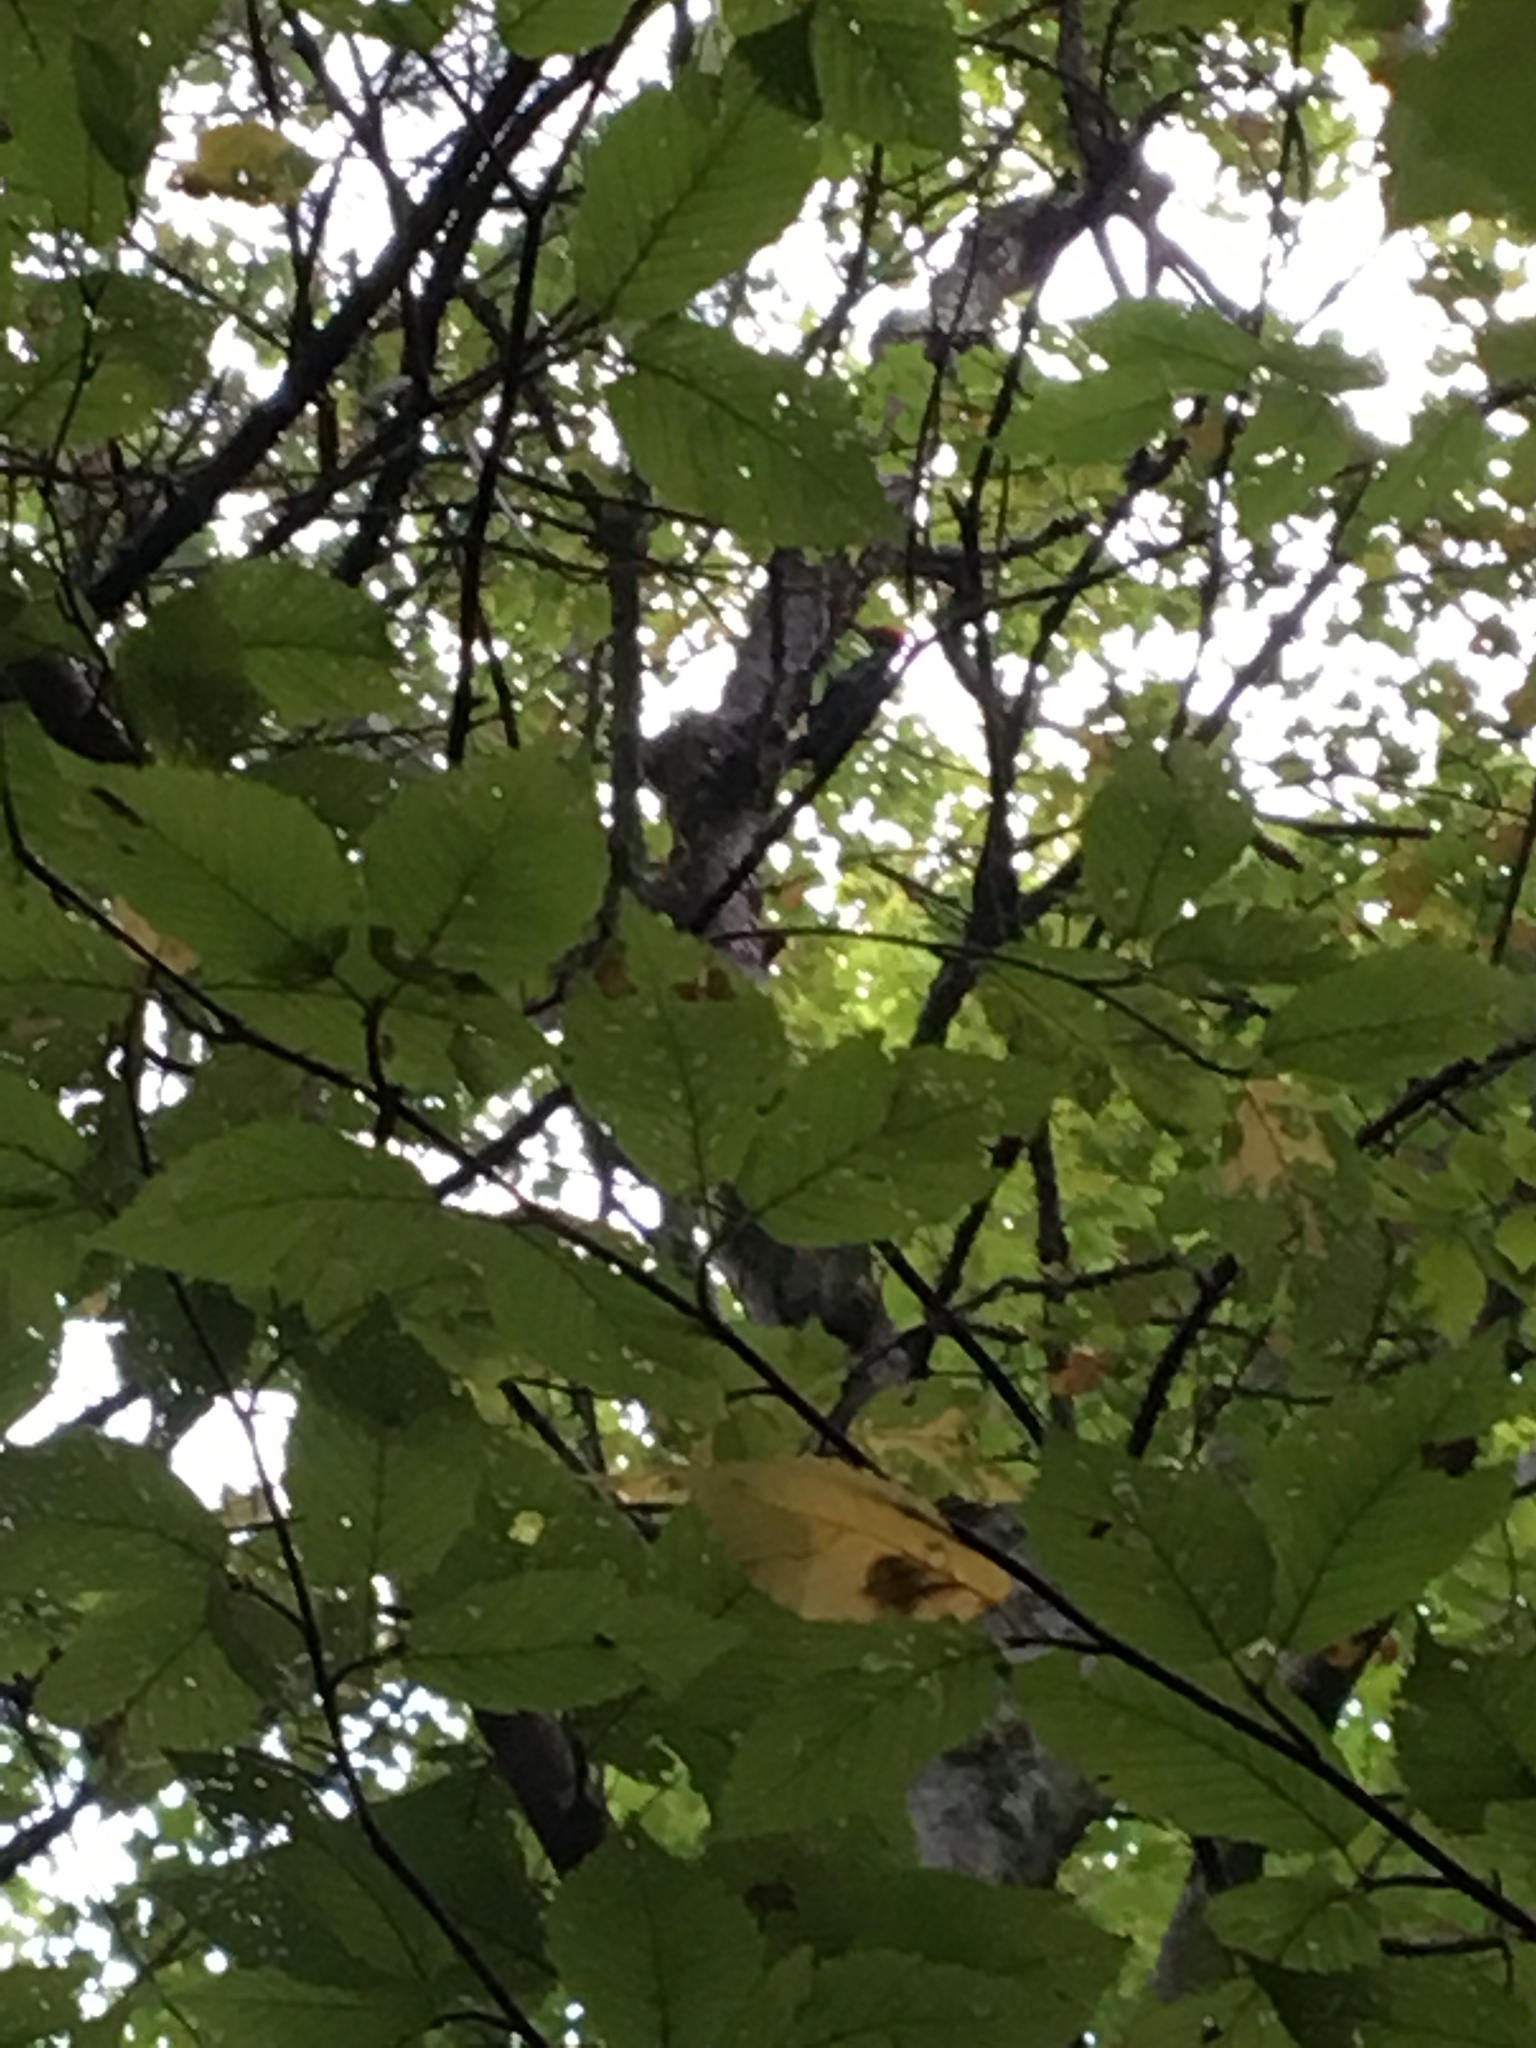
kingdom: Animalia
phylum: Chordata
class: Aves
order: Piciformes
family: Picidae
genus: Dryocopus
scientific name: Dryocopus pileatus
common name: Pileated woodpecker
